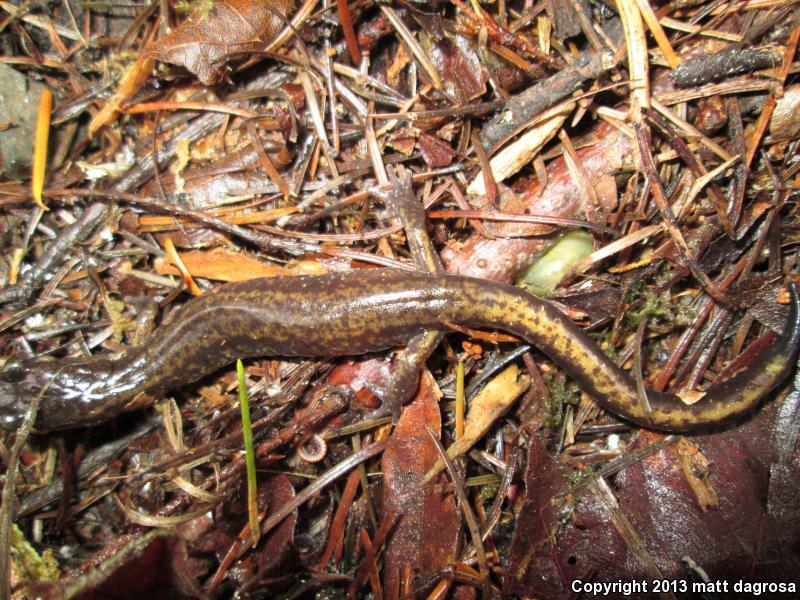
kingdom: Animalia
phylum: Chordata
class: Amphibia
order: Caudata
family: Plethodontidae
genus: Plethodon
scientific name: Plethodon dunni
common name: Dunn's salamander
